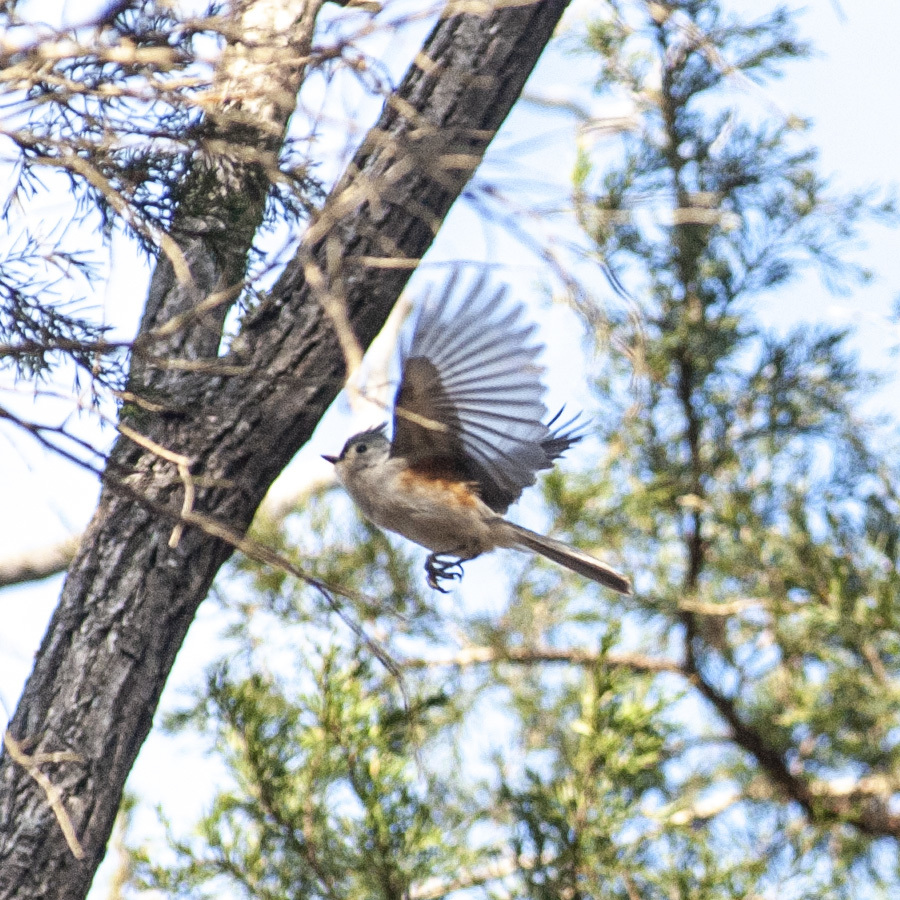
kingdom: Animalia
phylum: Chordata
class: Aves
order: Passeriformes
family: Paridae
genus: Baeolophus
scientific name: Baeolophus bicolor
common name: Tufted titmouse
